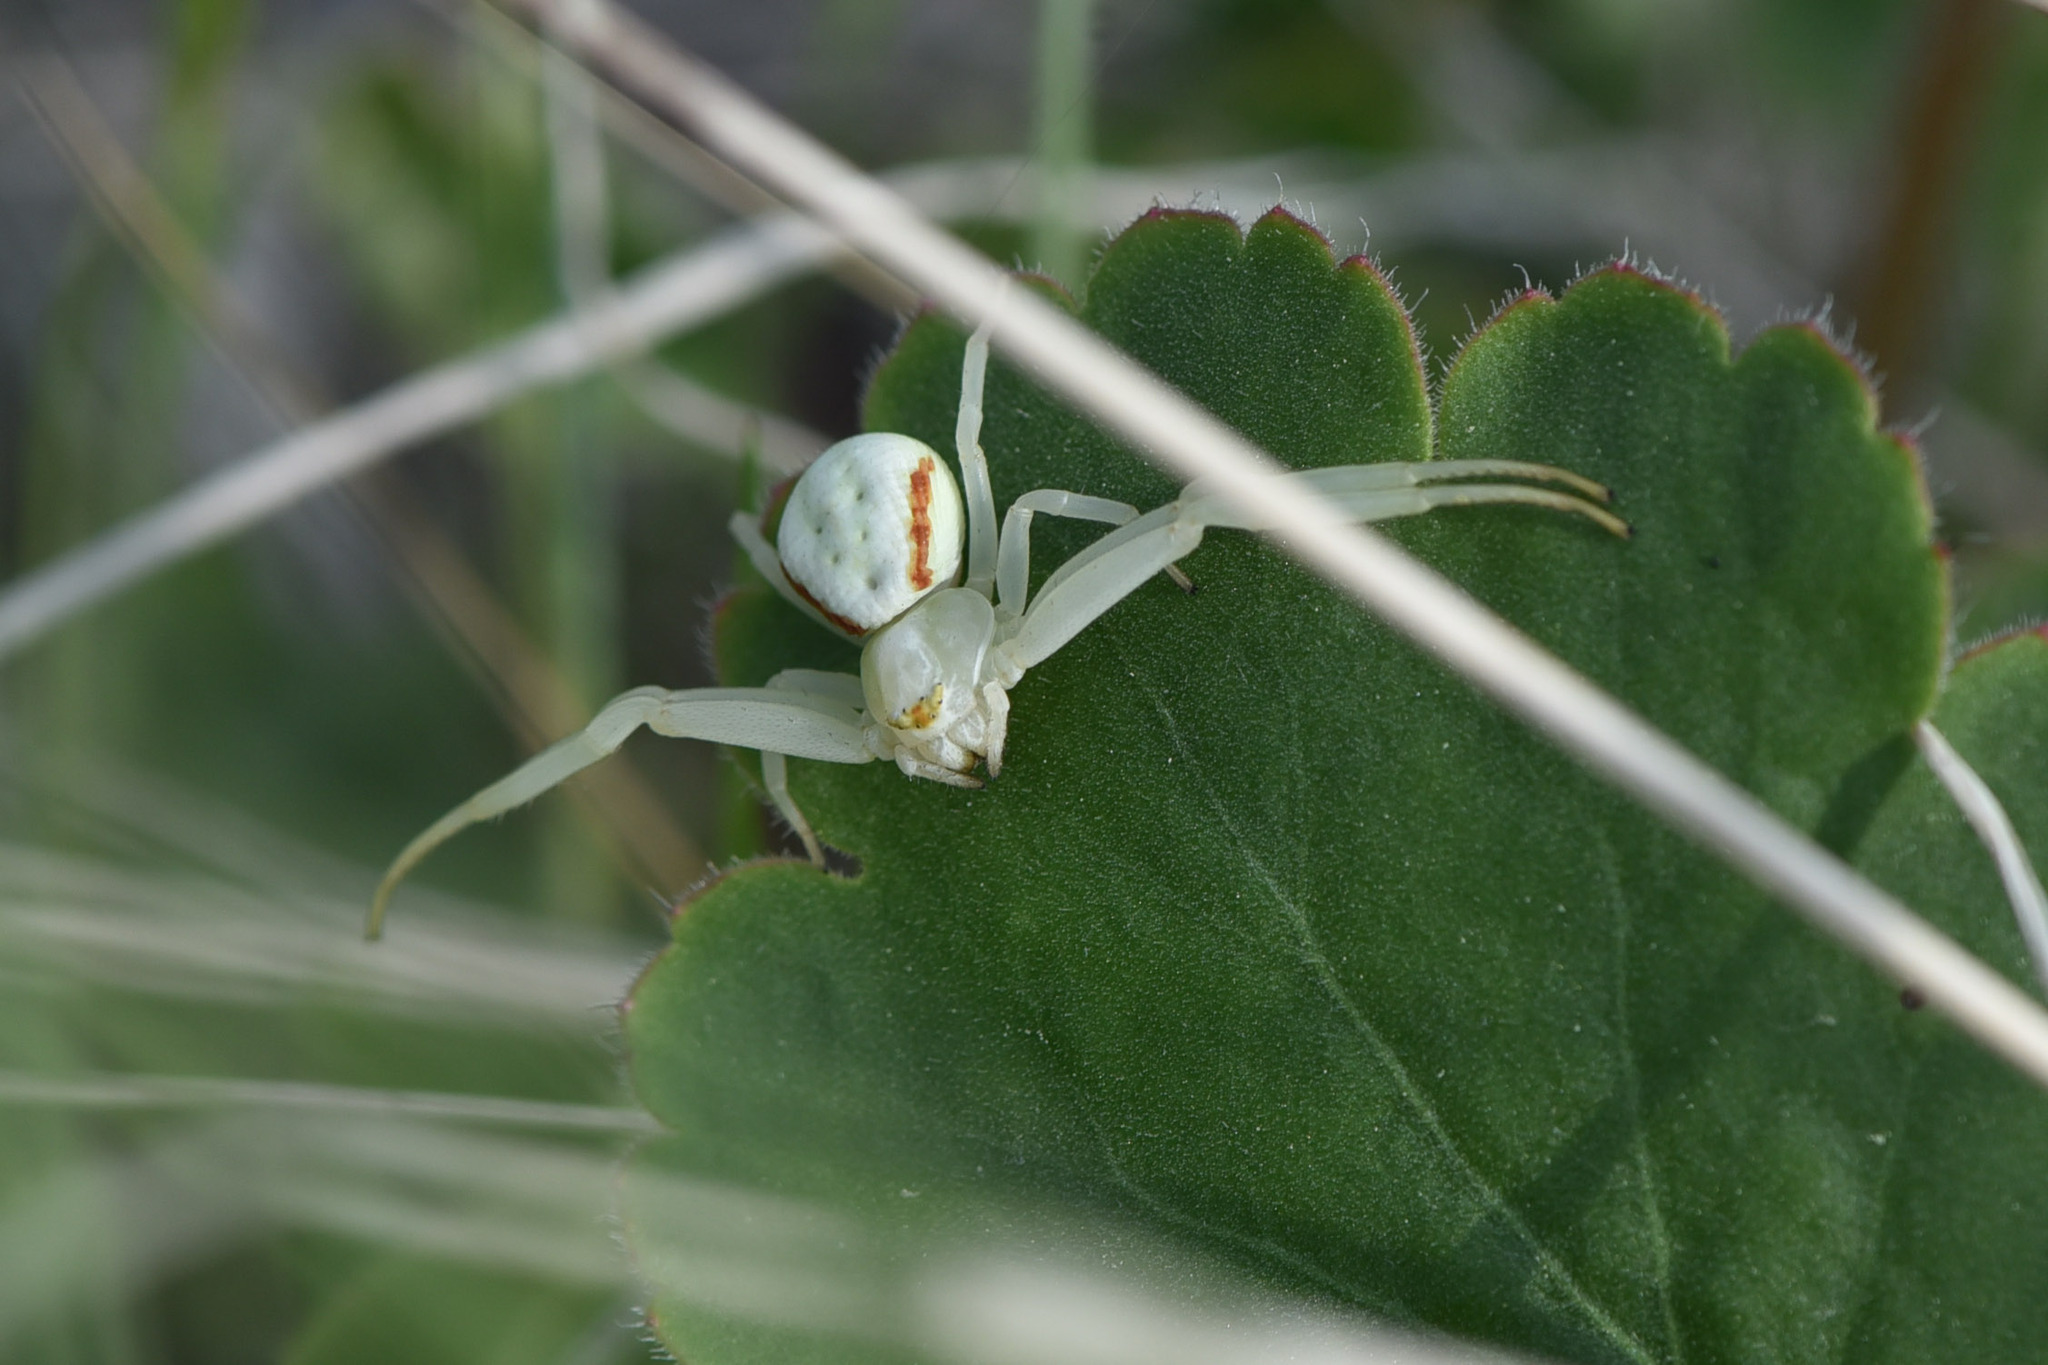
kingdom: Animalia
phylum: Arthropoda
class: Arachnida
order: Araneae
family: Thomisidae
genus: Misumena
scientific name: Misumena vatia
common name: Goldenrod crab spider
